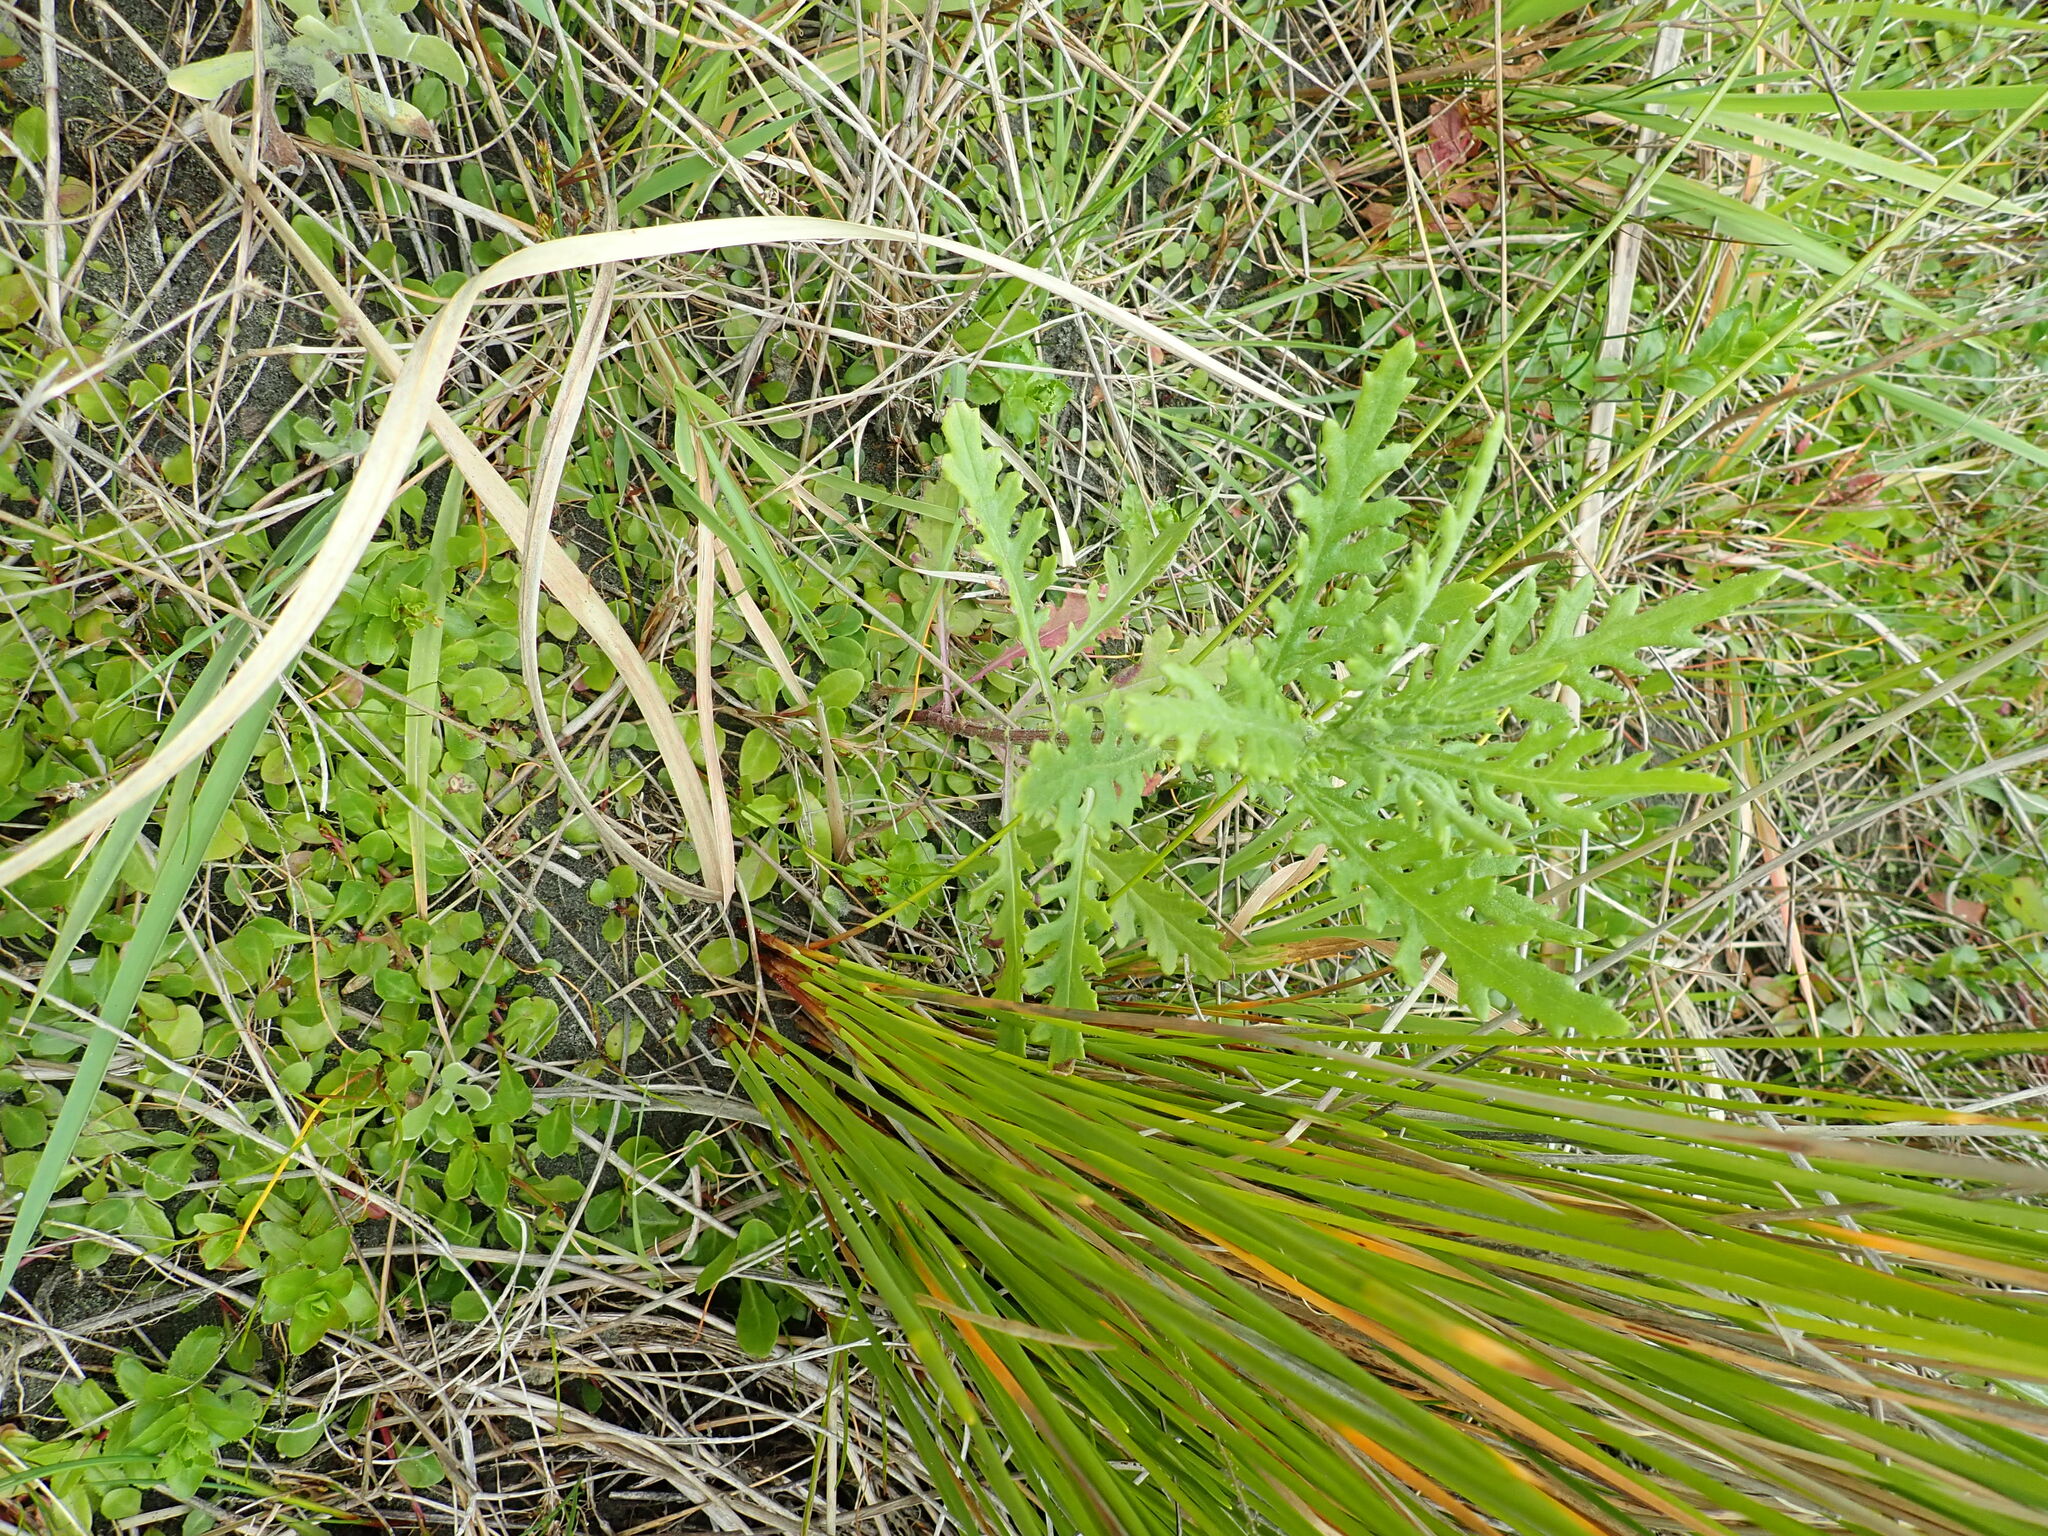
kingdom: Plantae
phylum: Tracheophyta
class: Magnoliopsida
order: Asterales
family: Asteraceae
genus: Senecio
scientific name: Senecio glomeratus
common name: Cutleaf burnweed
